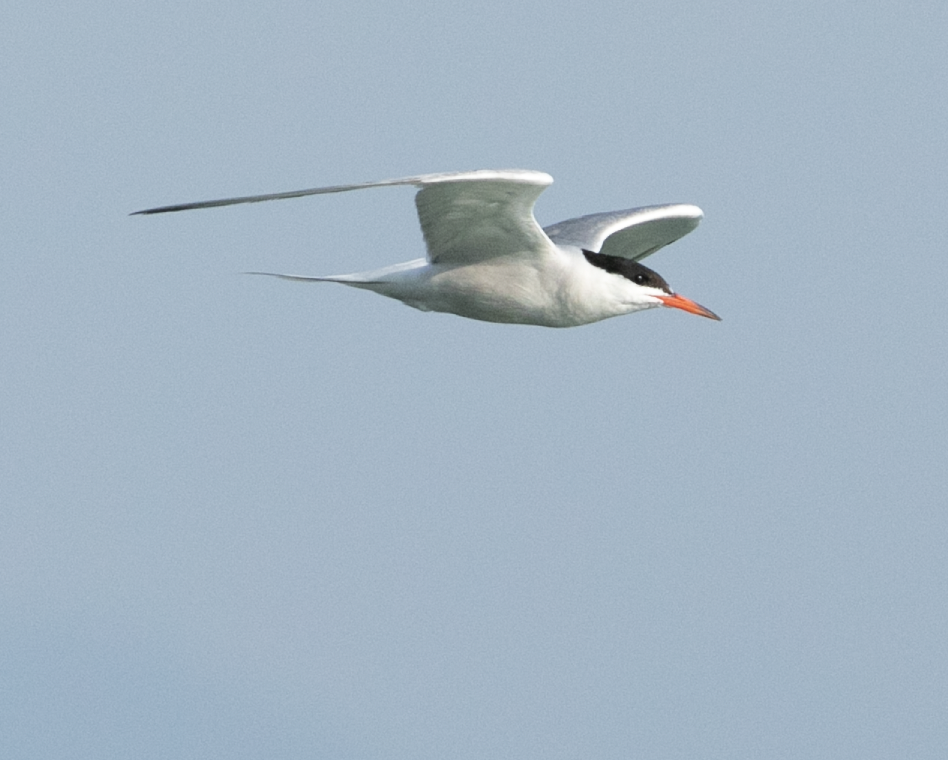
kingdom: Animalia
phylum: Chordata
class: Aves
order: Charadriiformes
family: Laridae
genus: Sterna
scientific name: Sterna hirundo
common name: Common tern
